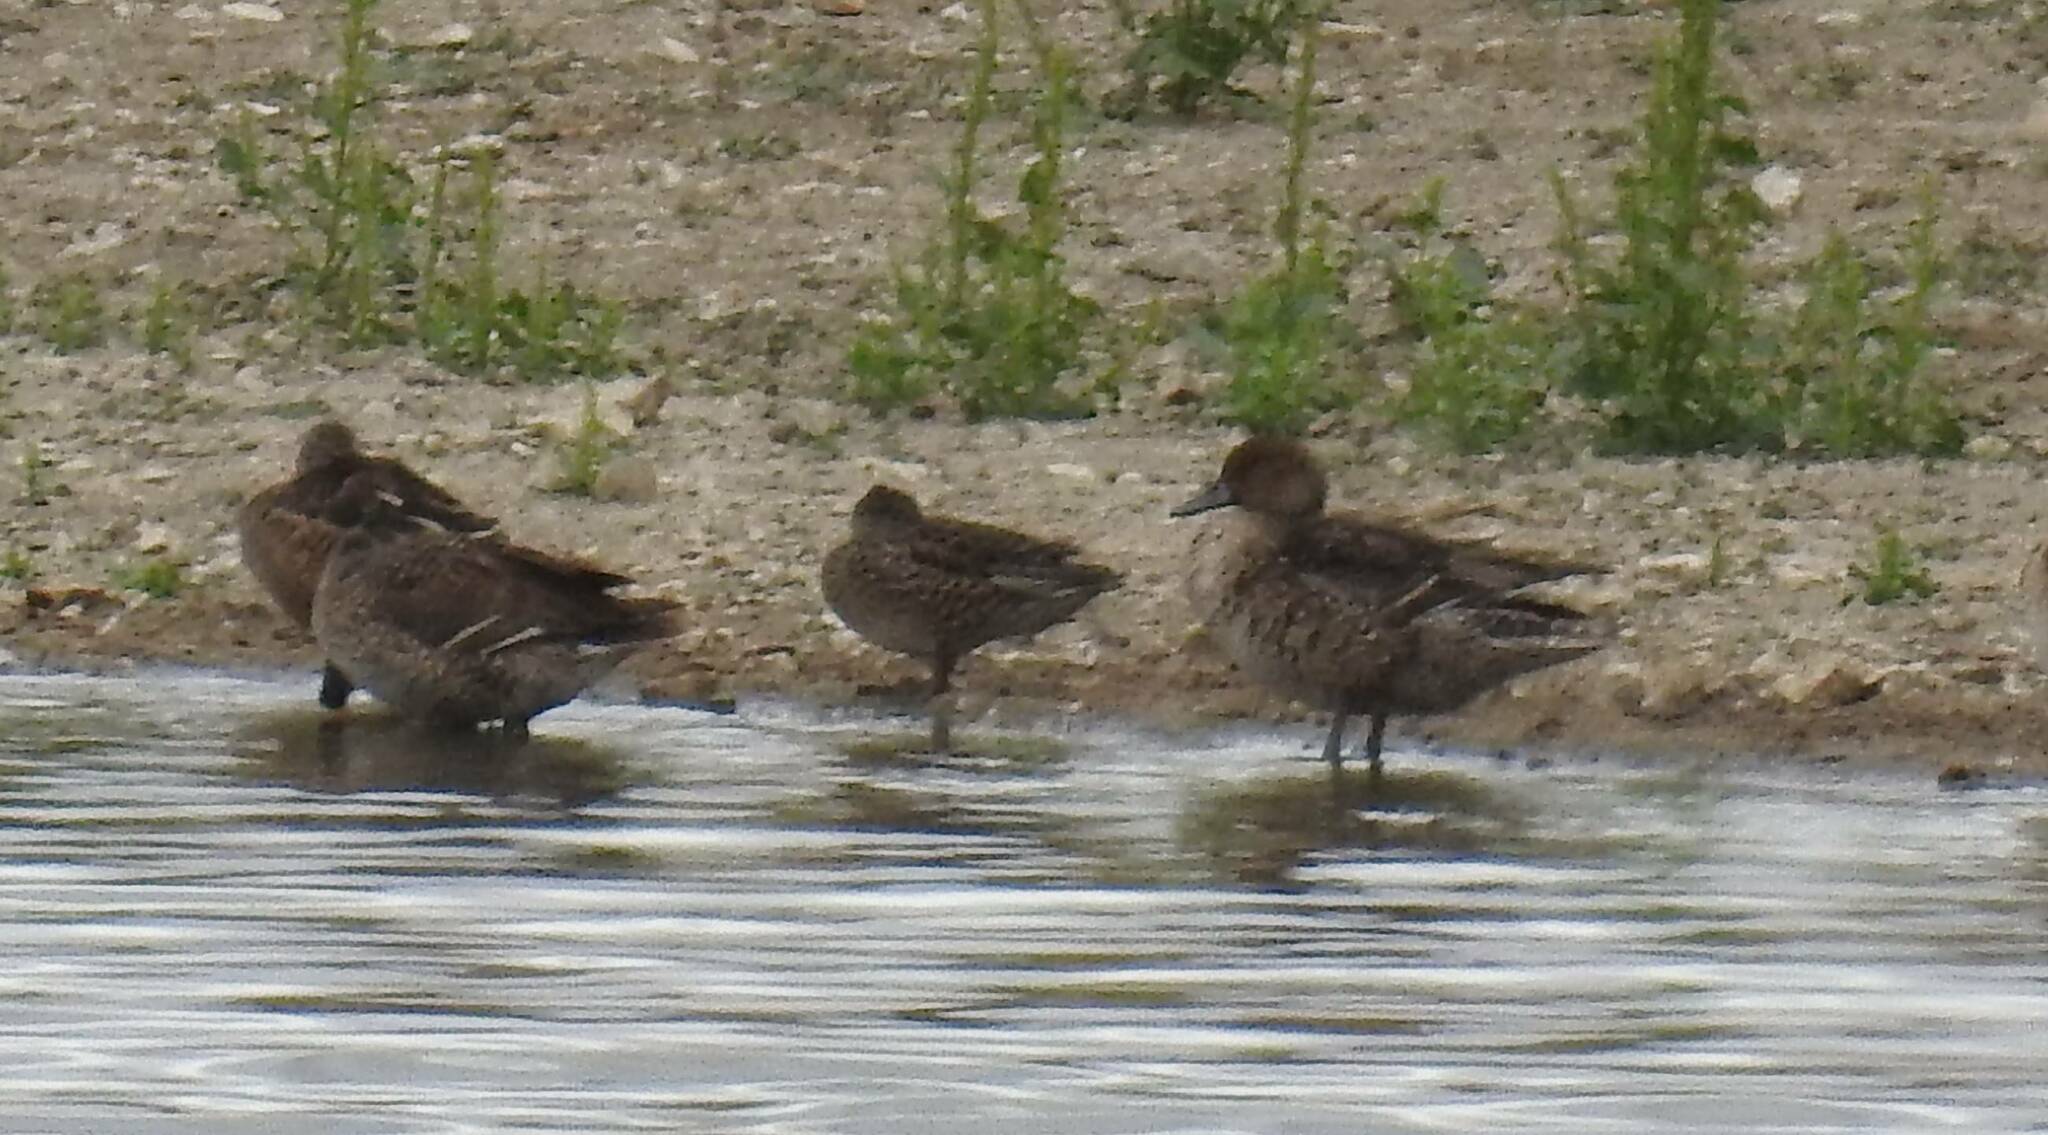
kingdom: Animalia
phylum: Chordata
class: Aves
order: Anseriformes
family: Anatidae
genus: Anas
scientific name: Anas acuta
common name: Northern pintail
